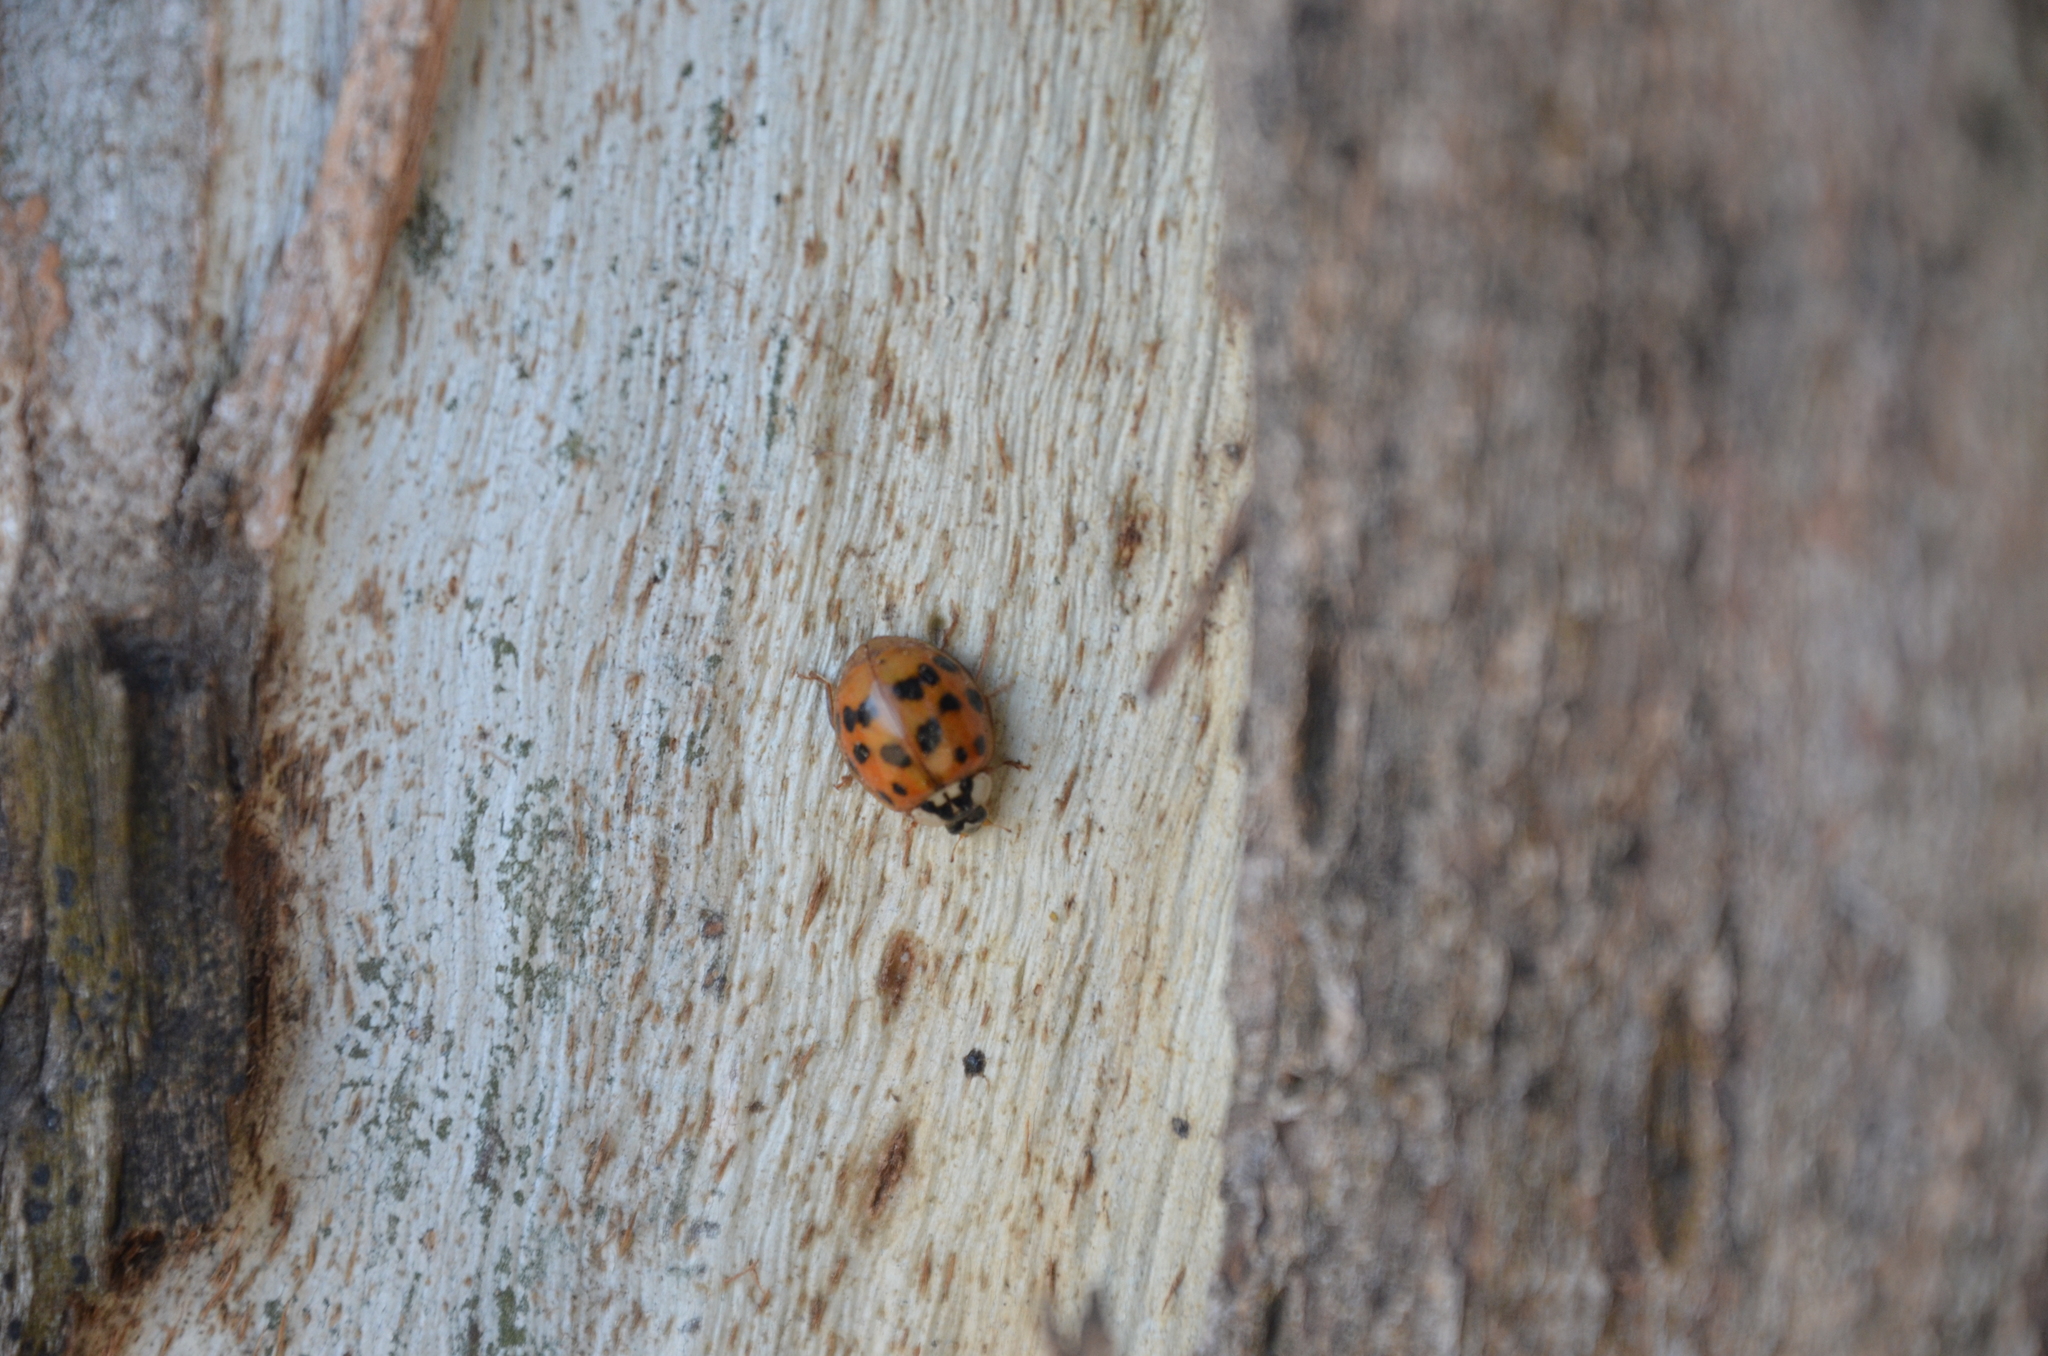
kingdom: Animalia
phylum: Arthropoda
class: Insecta
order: Coleoptera
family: Coccinellidae
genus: Harmonia
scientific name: Harmonia axyridis
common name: Harlequin ladybird
